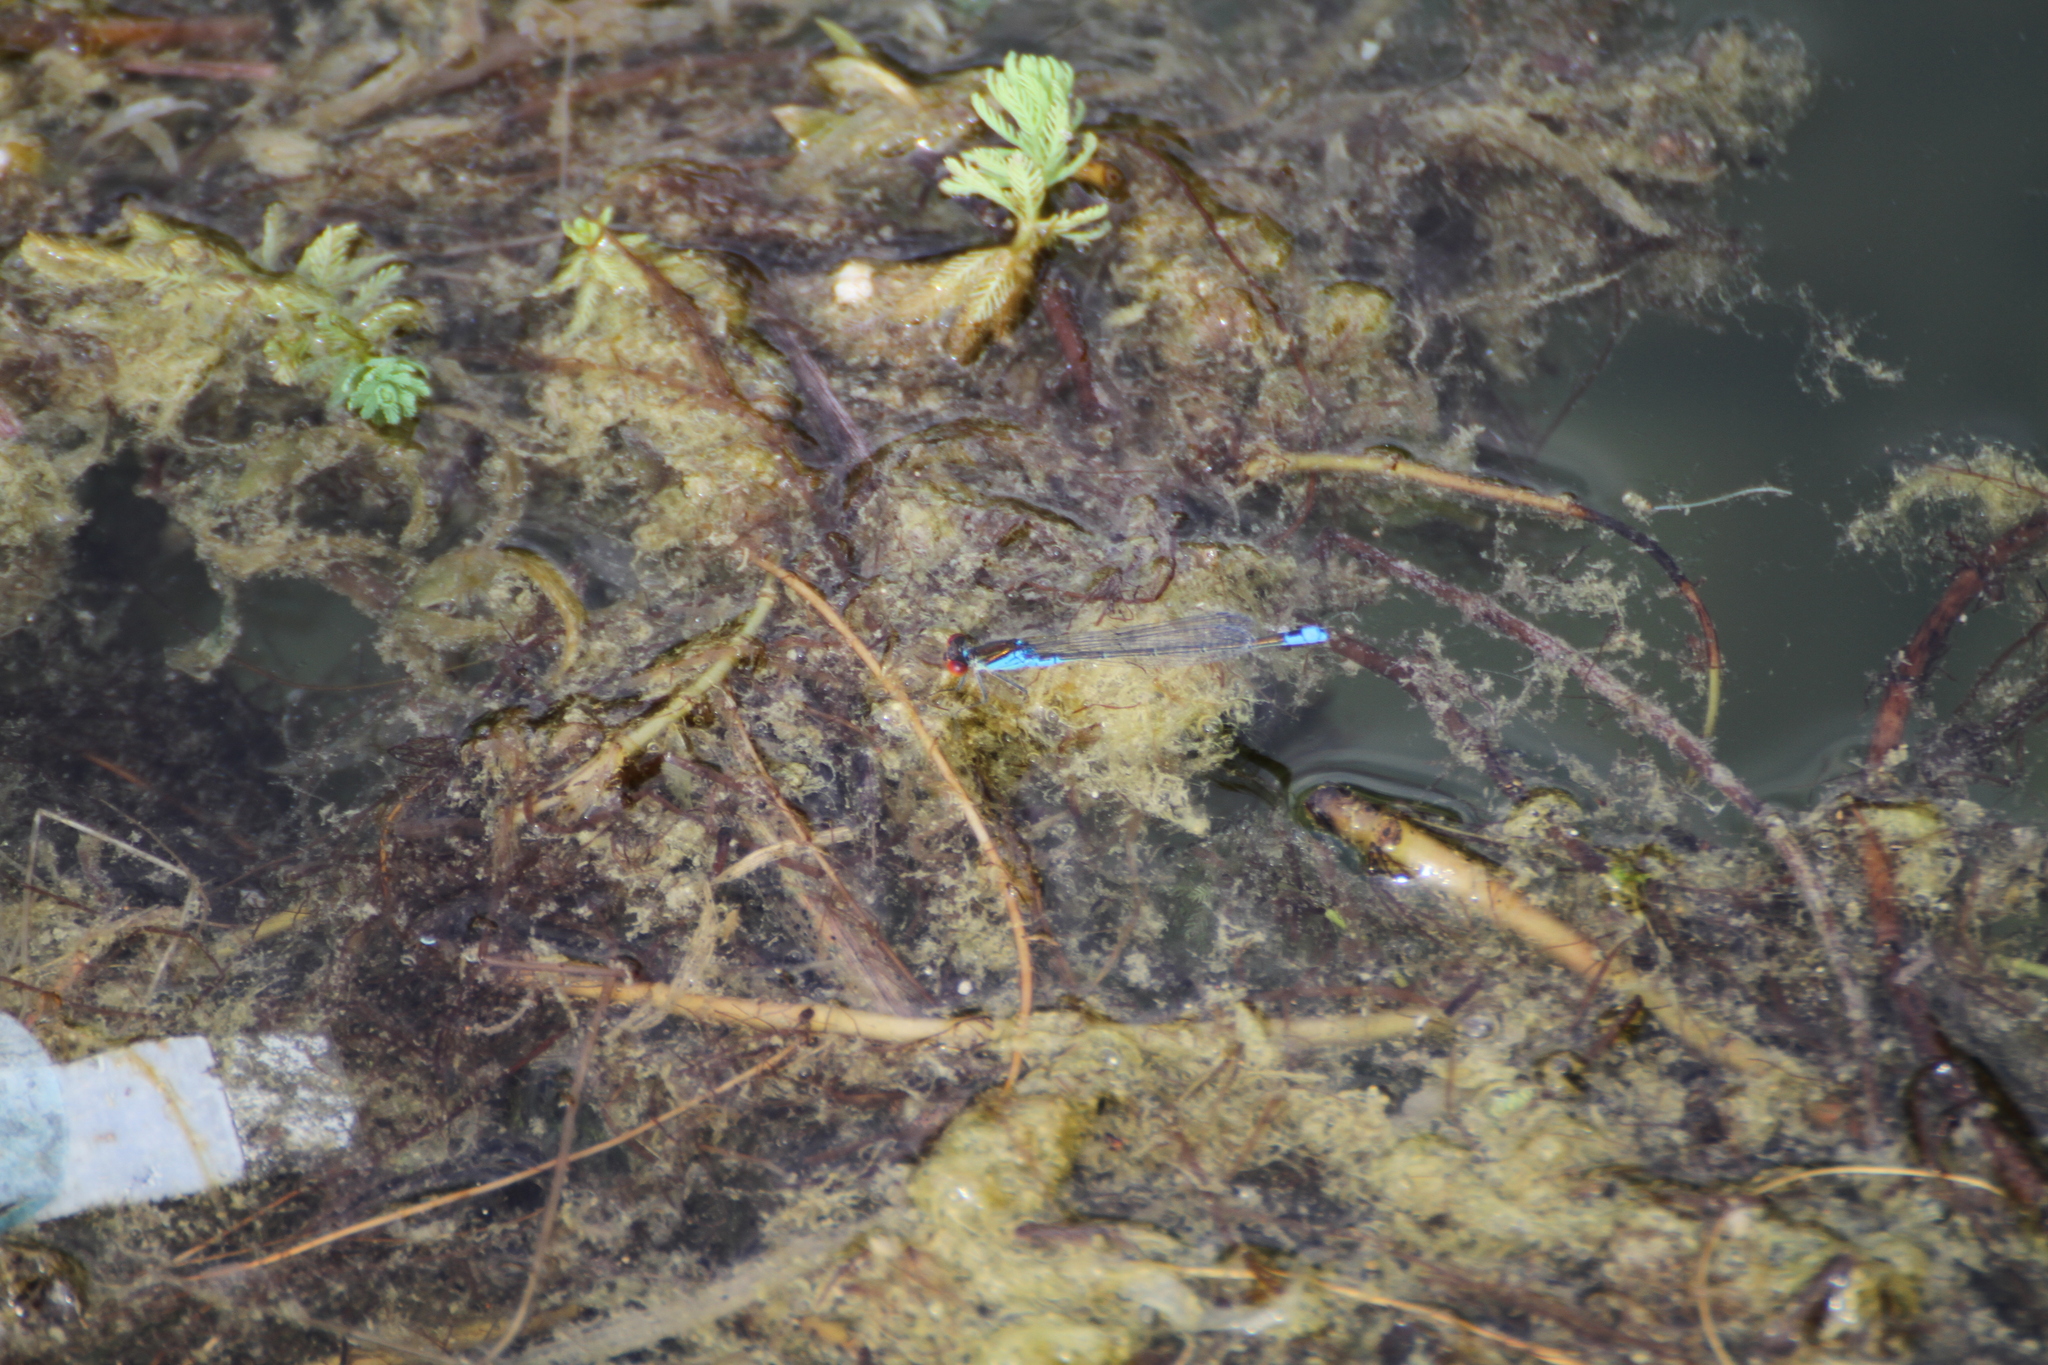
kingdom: Animalia
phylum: Arthropoda
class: Insecta
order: Odonata
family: Coenagrionidae
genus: Erythromma
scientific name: Erythromma viridulum
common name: Small red-eyed damselfly
